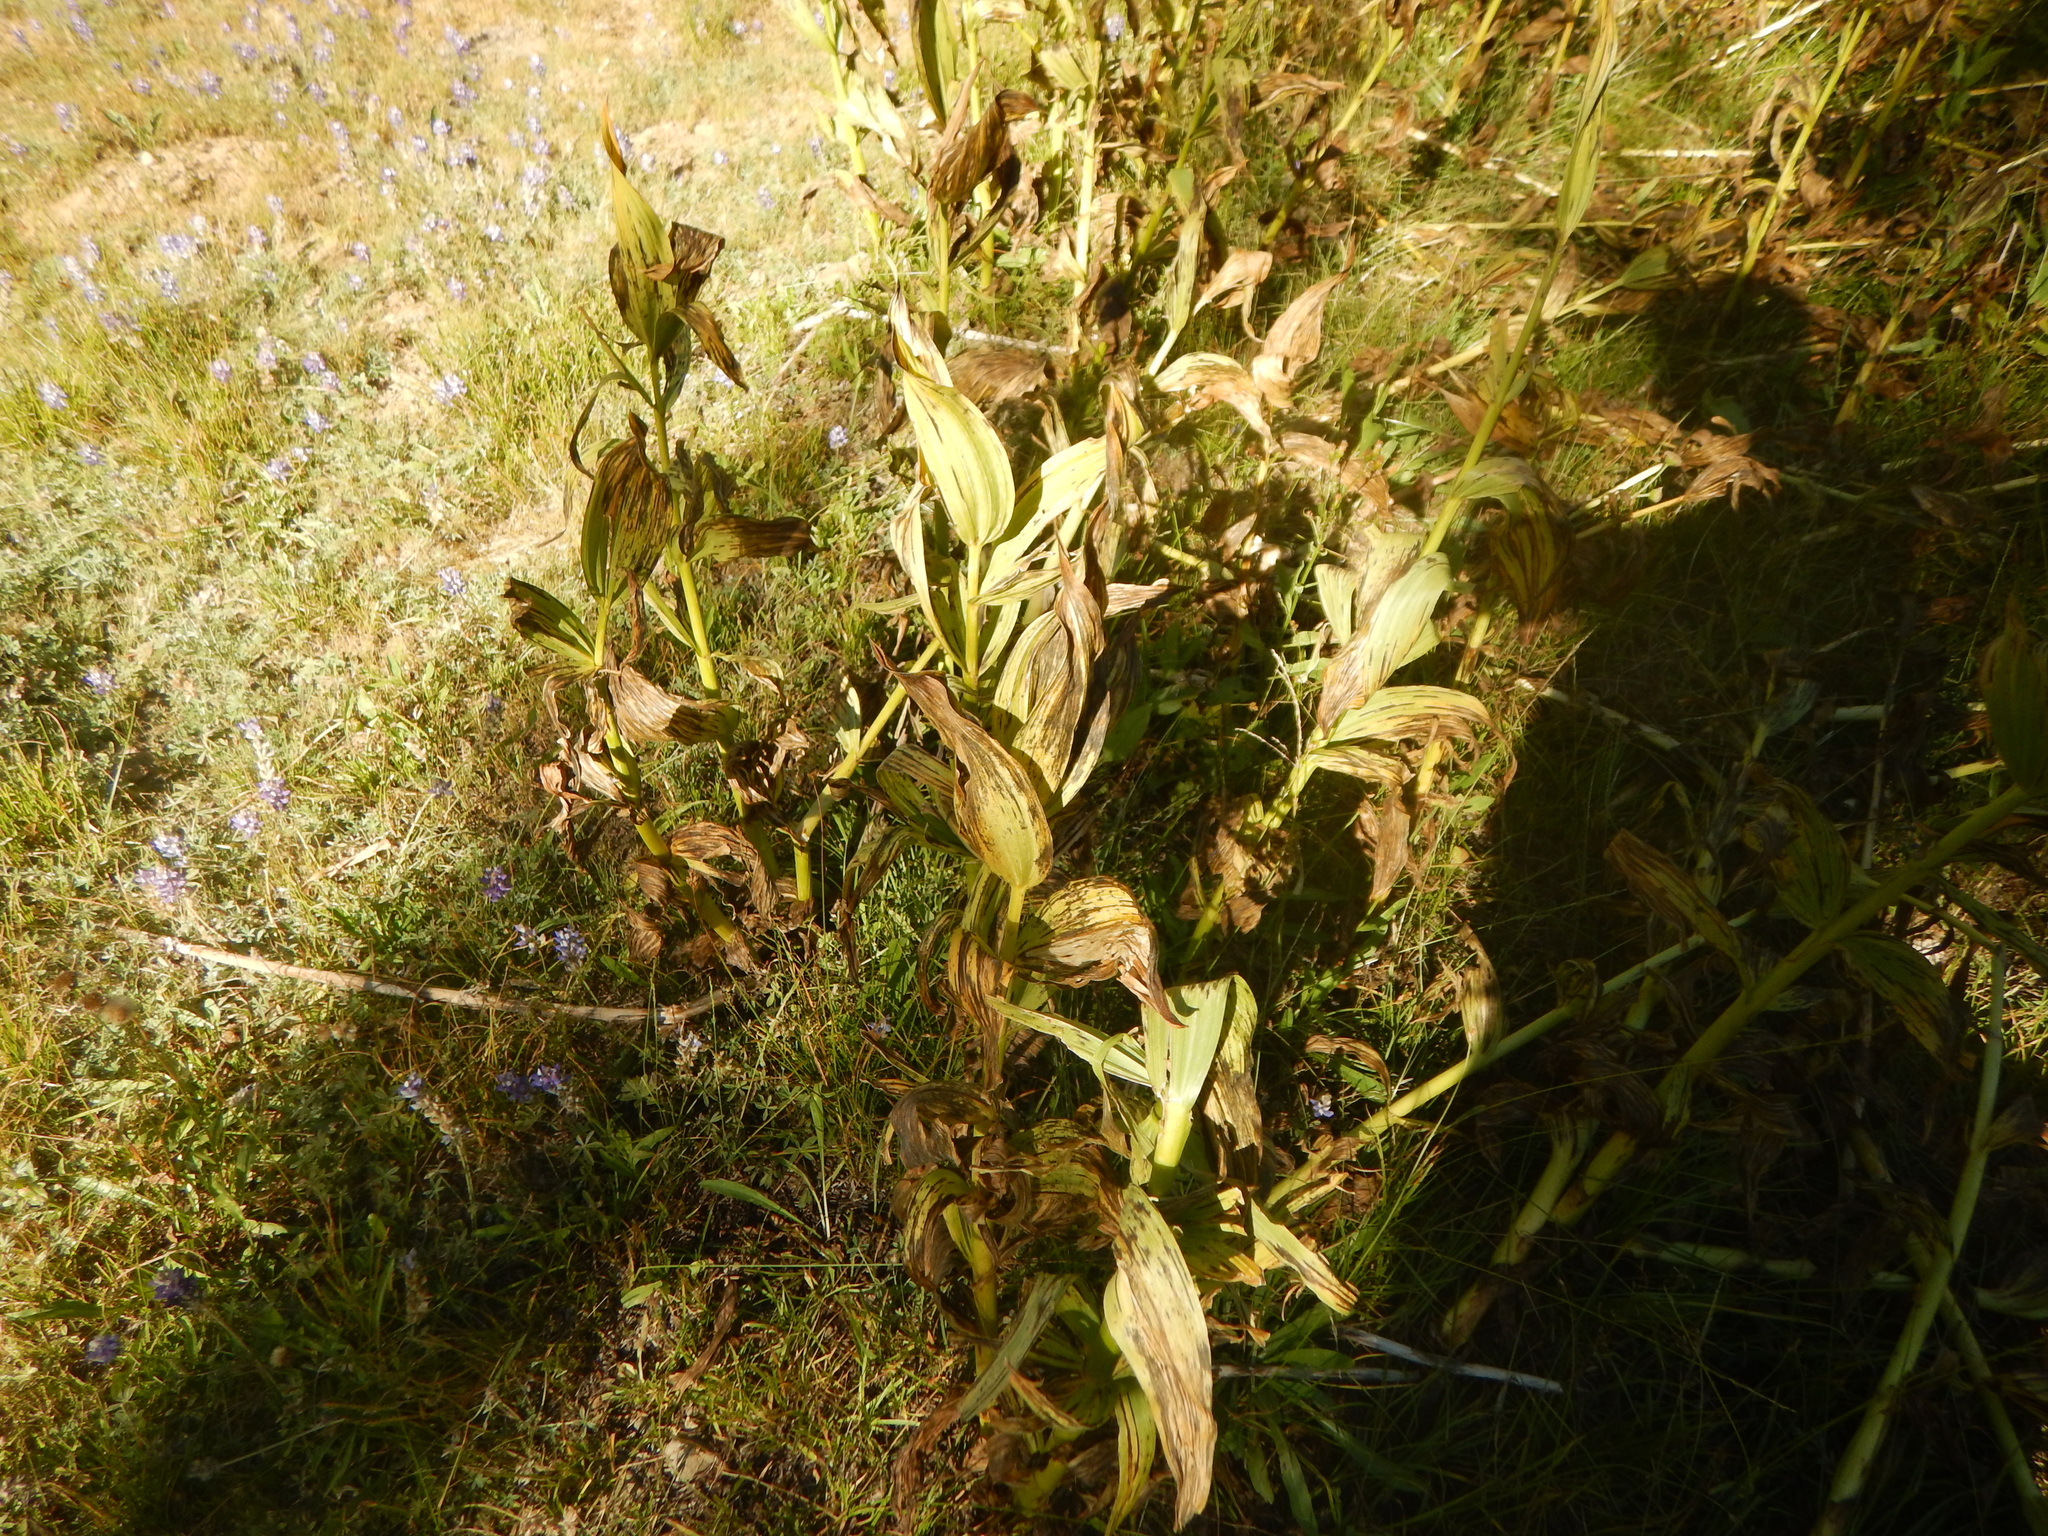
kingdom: Plantae
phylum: Tracheophyta
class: Liliopsida
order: Liliales
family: Melanthiaceae
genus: Veratrum
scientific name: Veratrum californicum
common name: California veratrum
